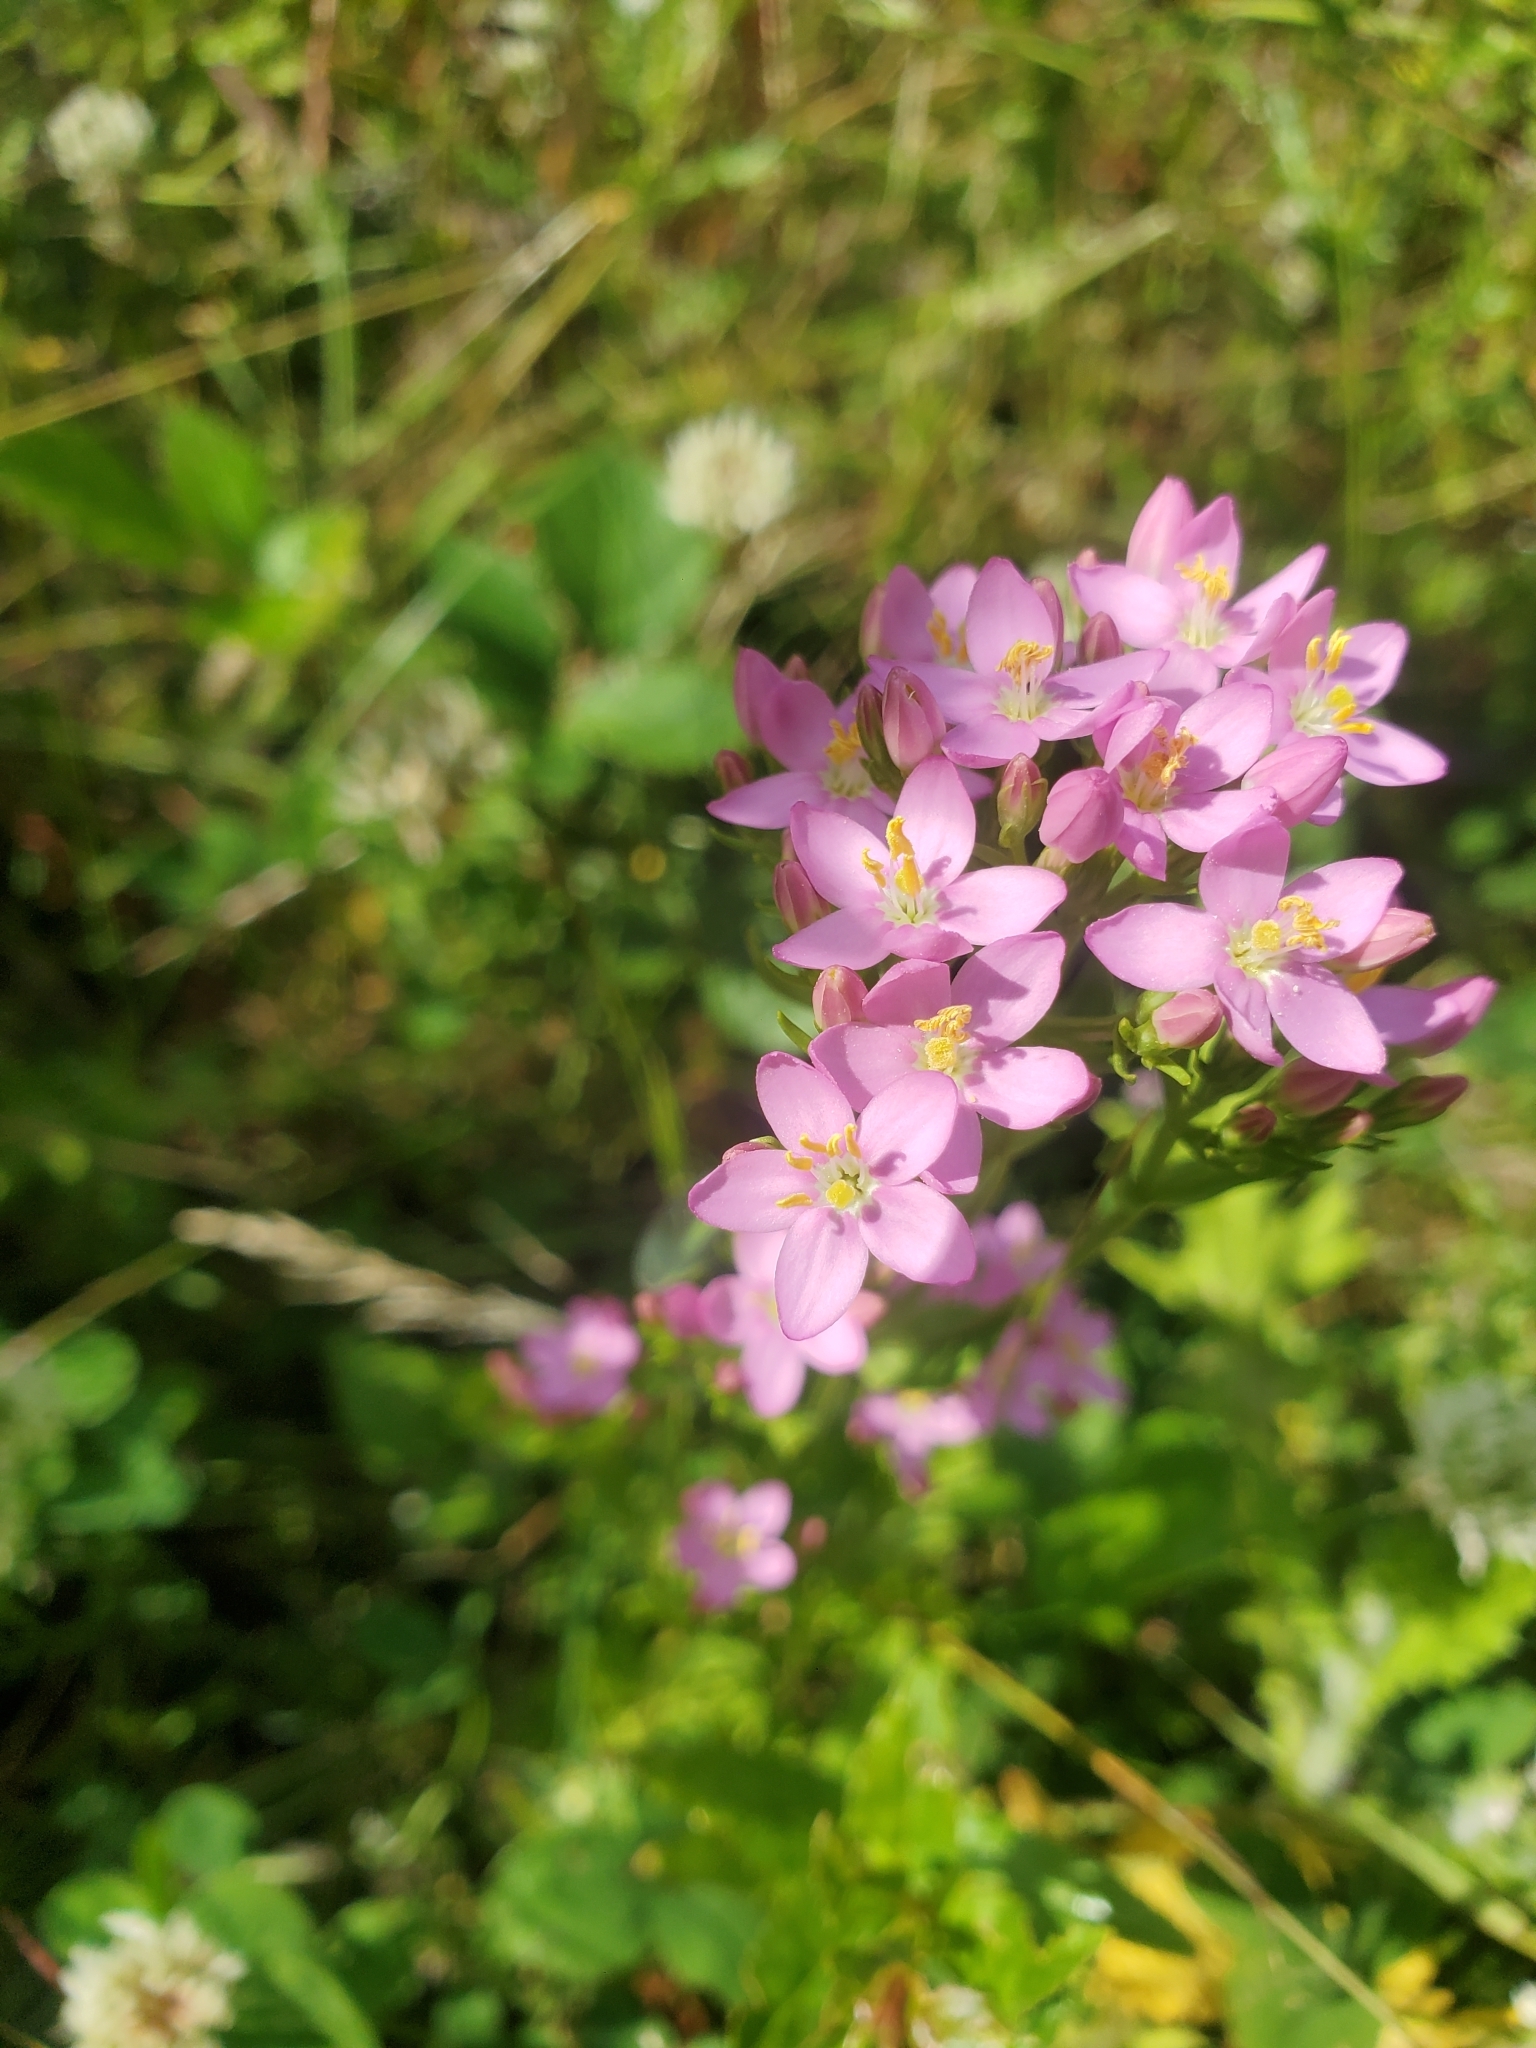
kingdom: Plantae
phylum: Tracheophyta
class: Magnoliopsida
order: Gentianales
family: Gentianaceae
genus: Centaurium
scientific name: Centaurium erythraea
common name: Common centaury
